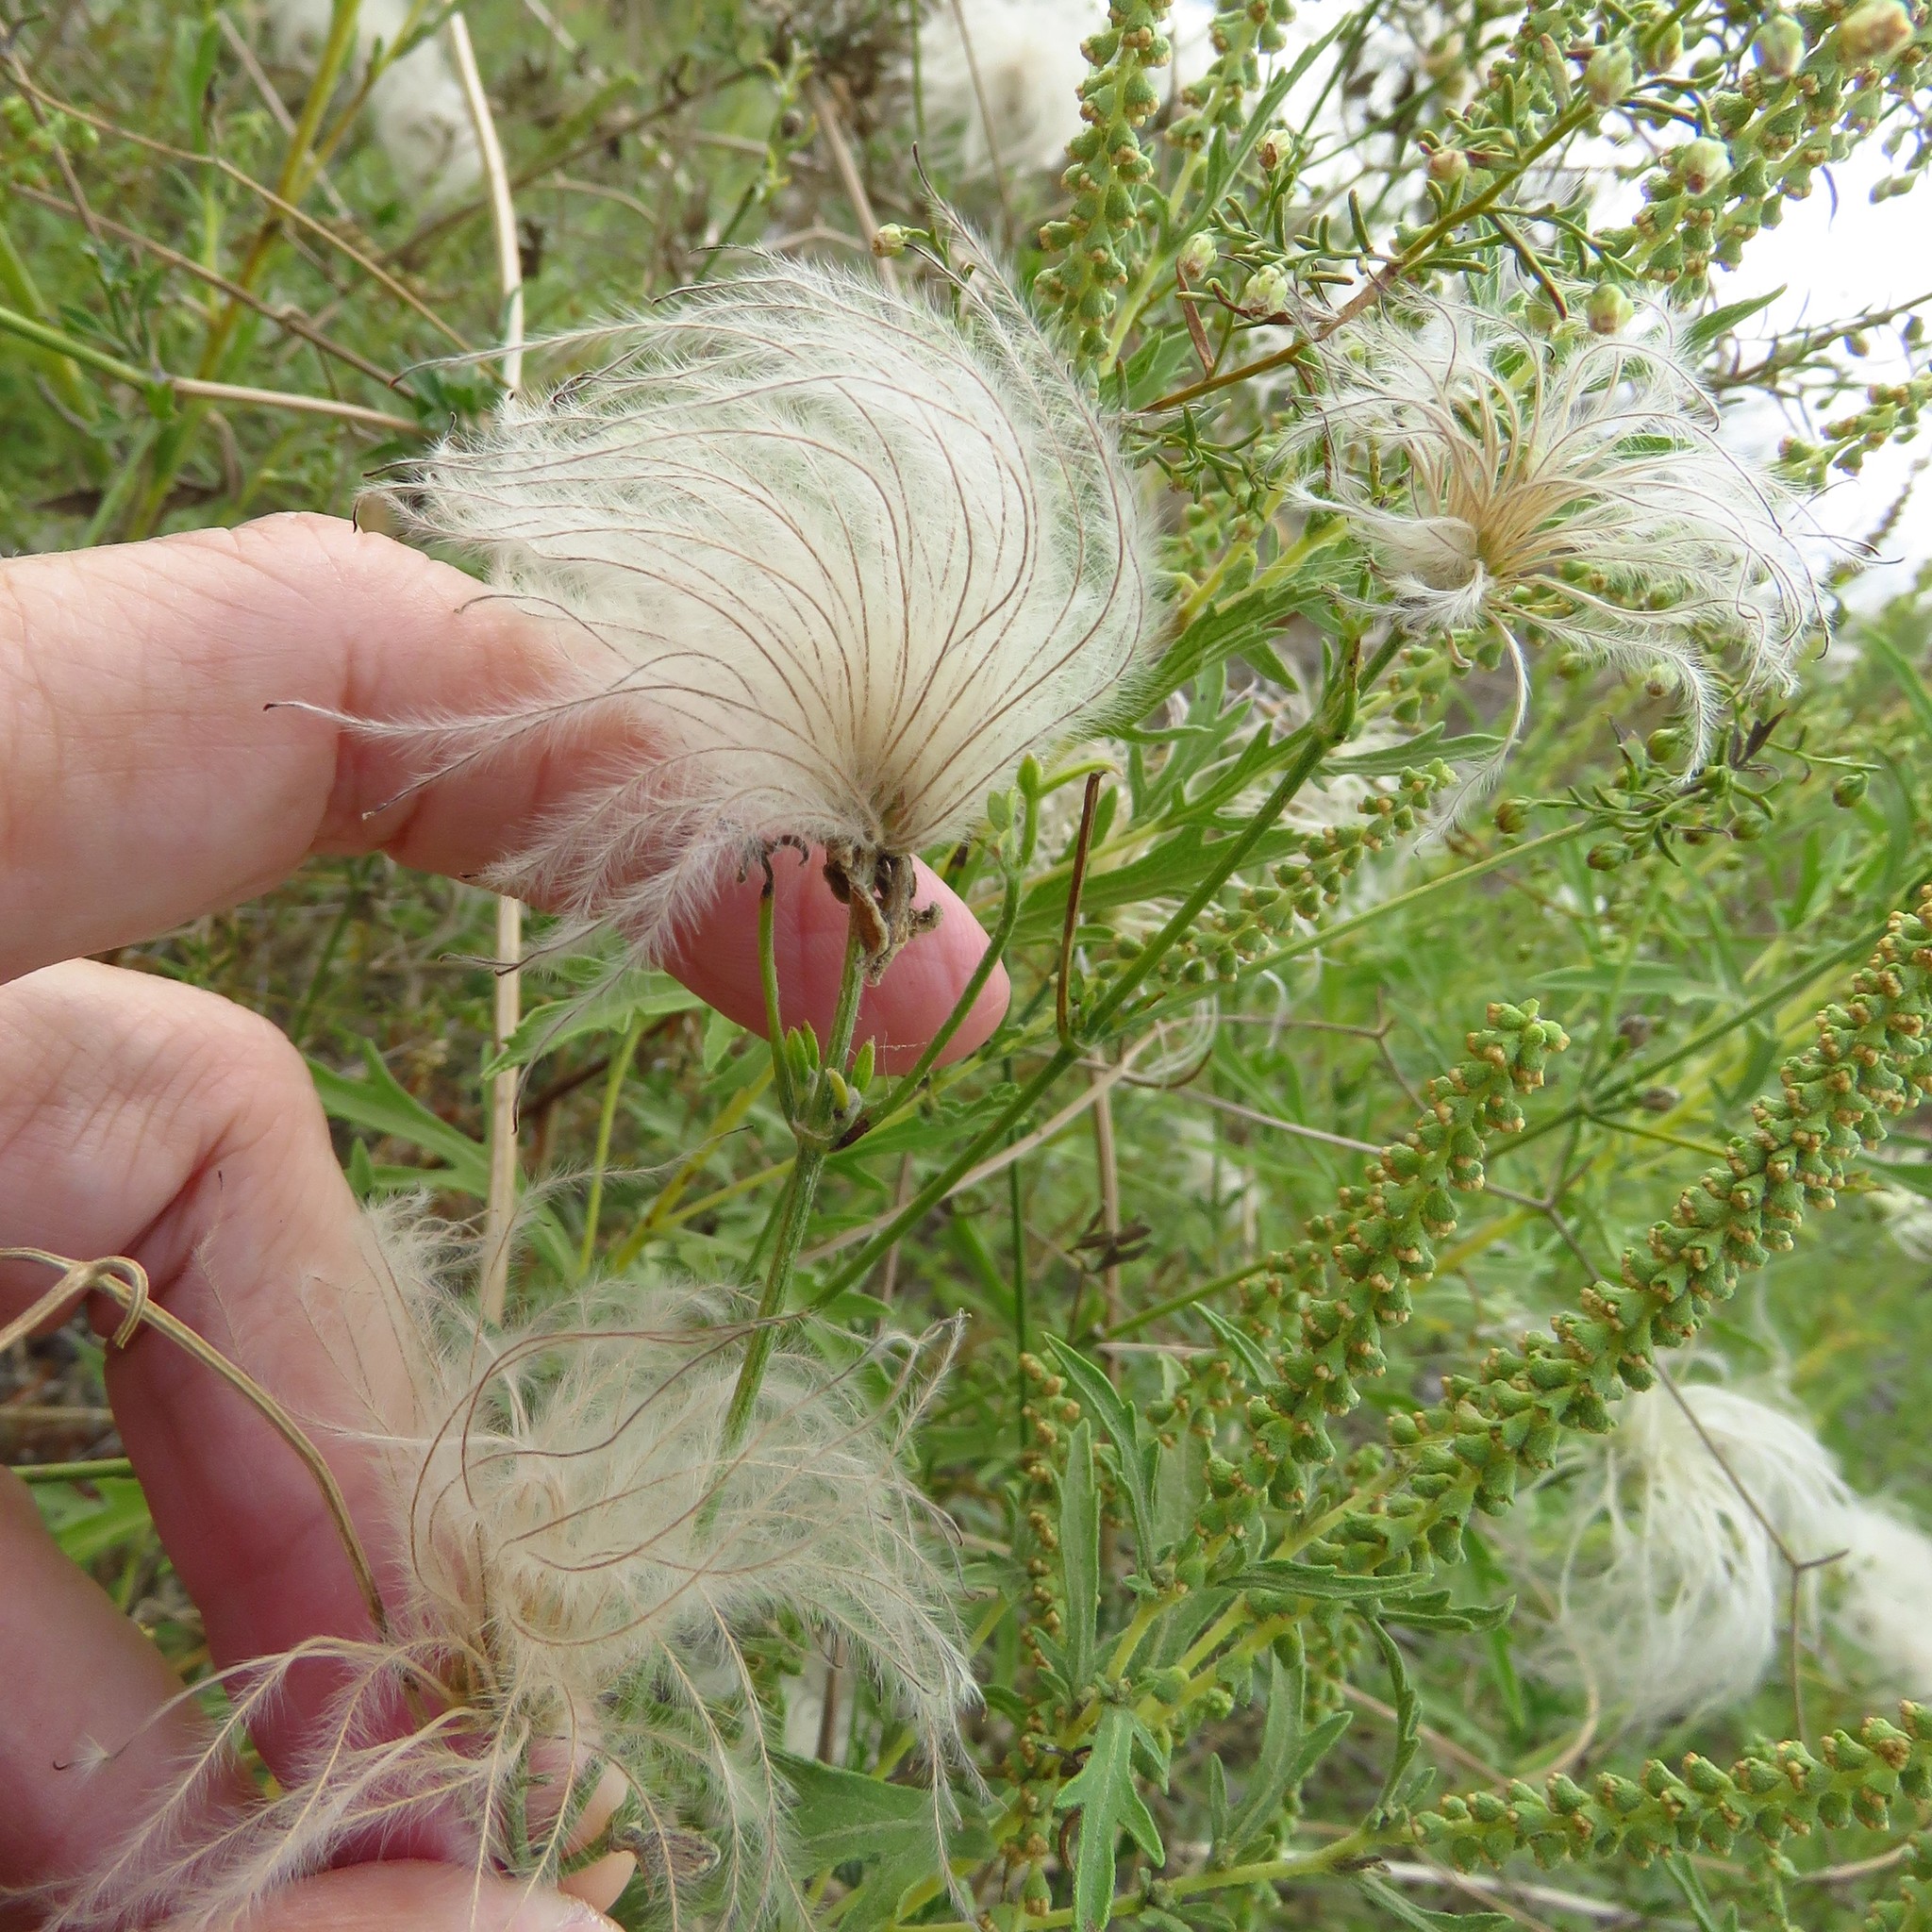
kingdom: Plantae
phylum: Tracheophyta
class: Magnoliopsida
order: Ranunculales
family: Ranunculaceae
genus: Clematis
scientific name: Clematis drummondii
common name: Texas virgin's bower
